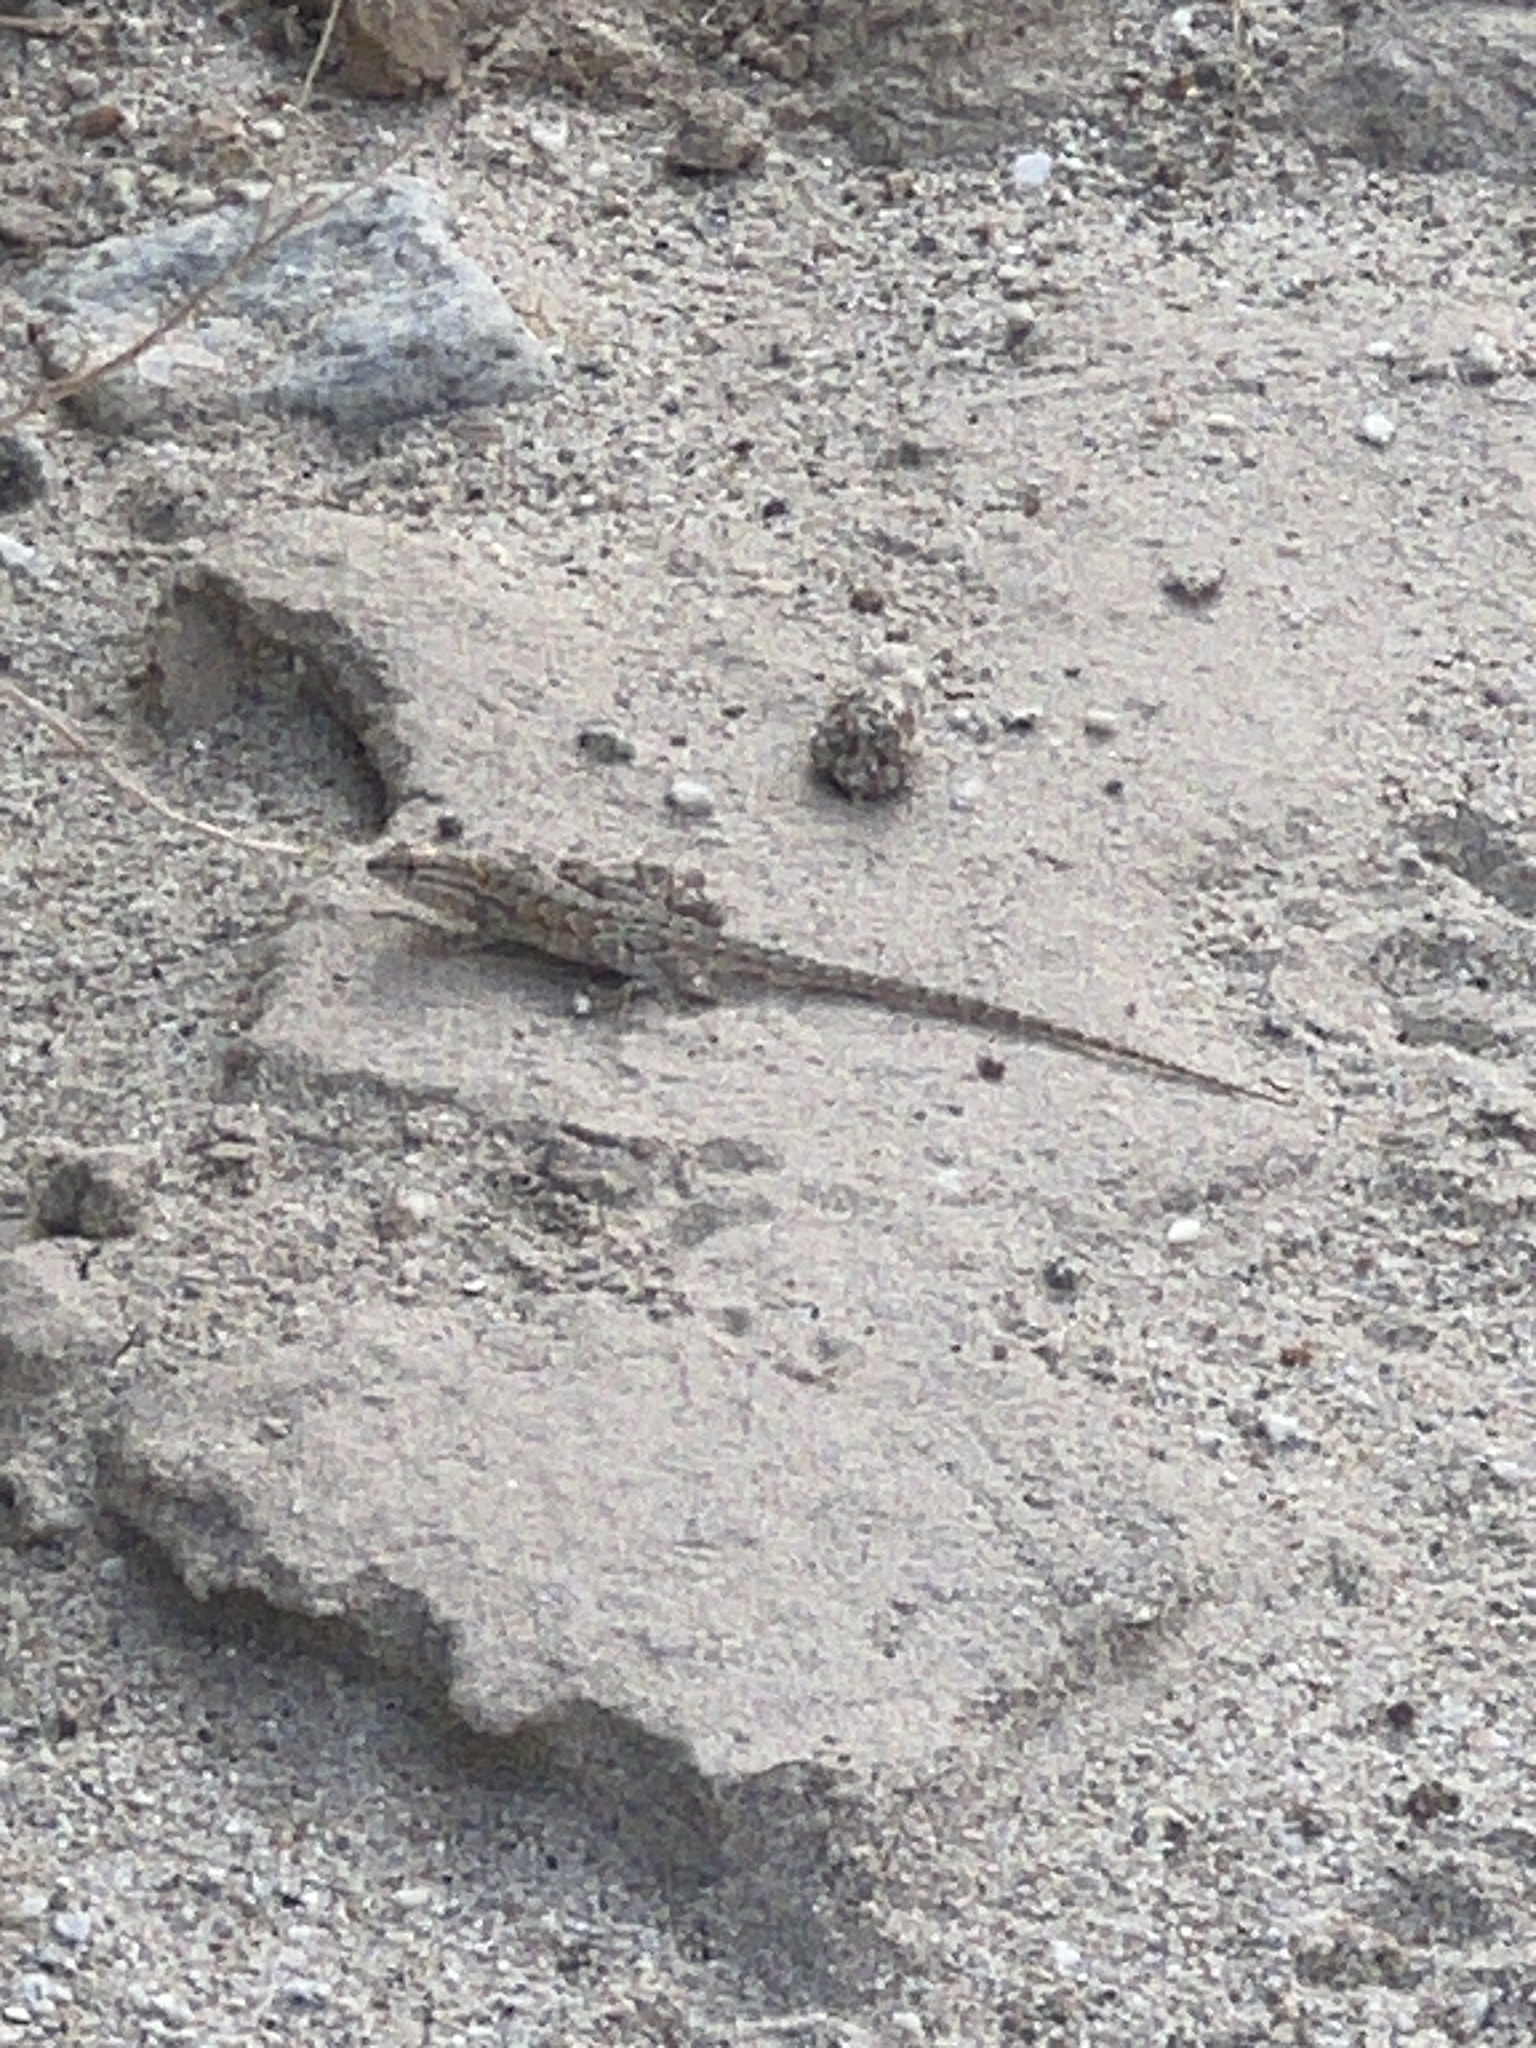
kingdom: Animalia
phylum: Chordata
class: Squamata
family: Phrynosomatidae
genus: Uta
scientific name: Uta stansburiana
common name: Side-blotched lizard
